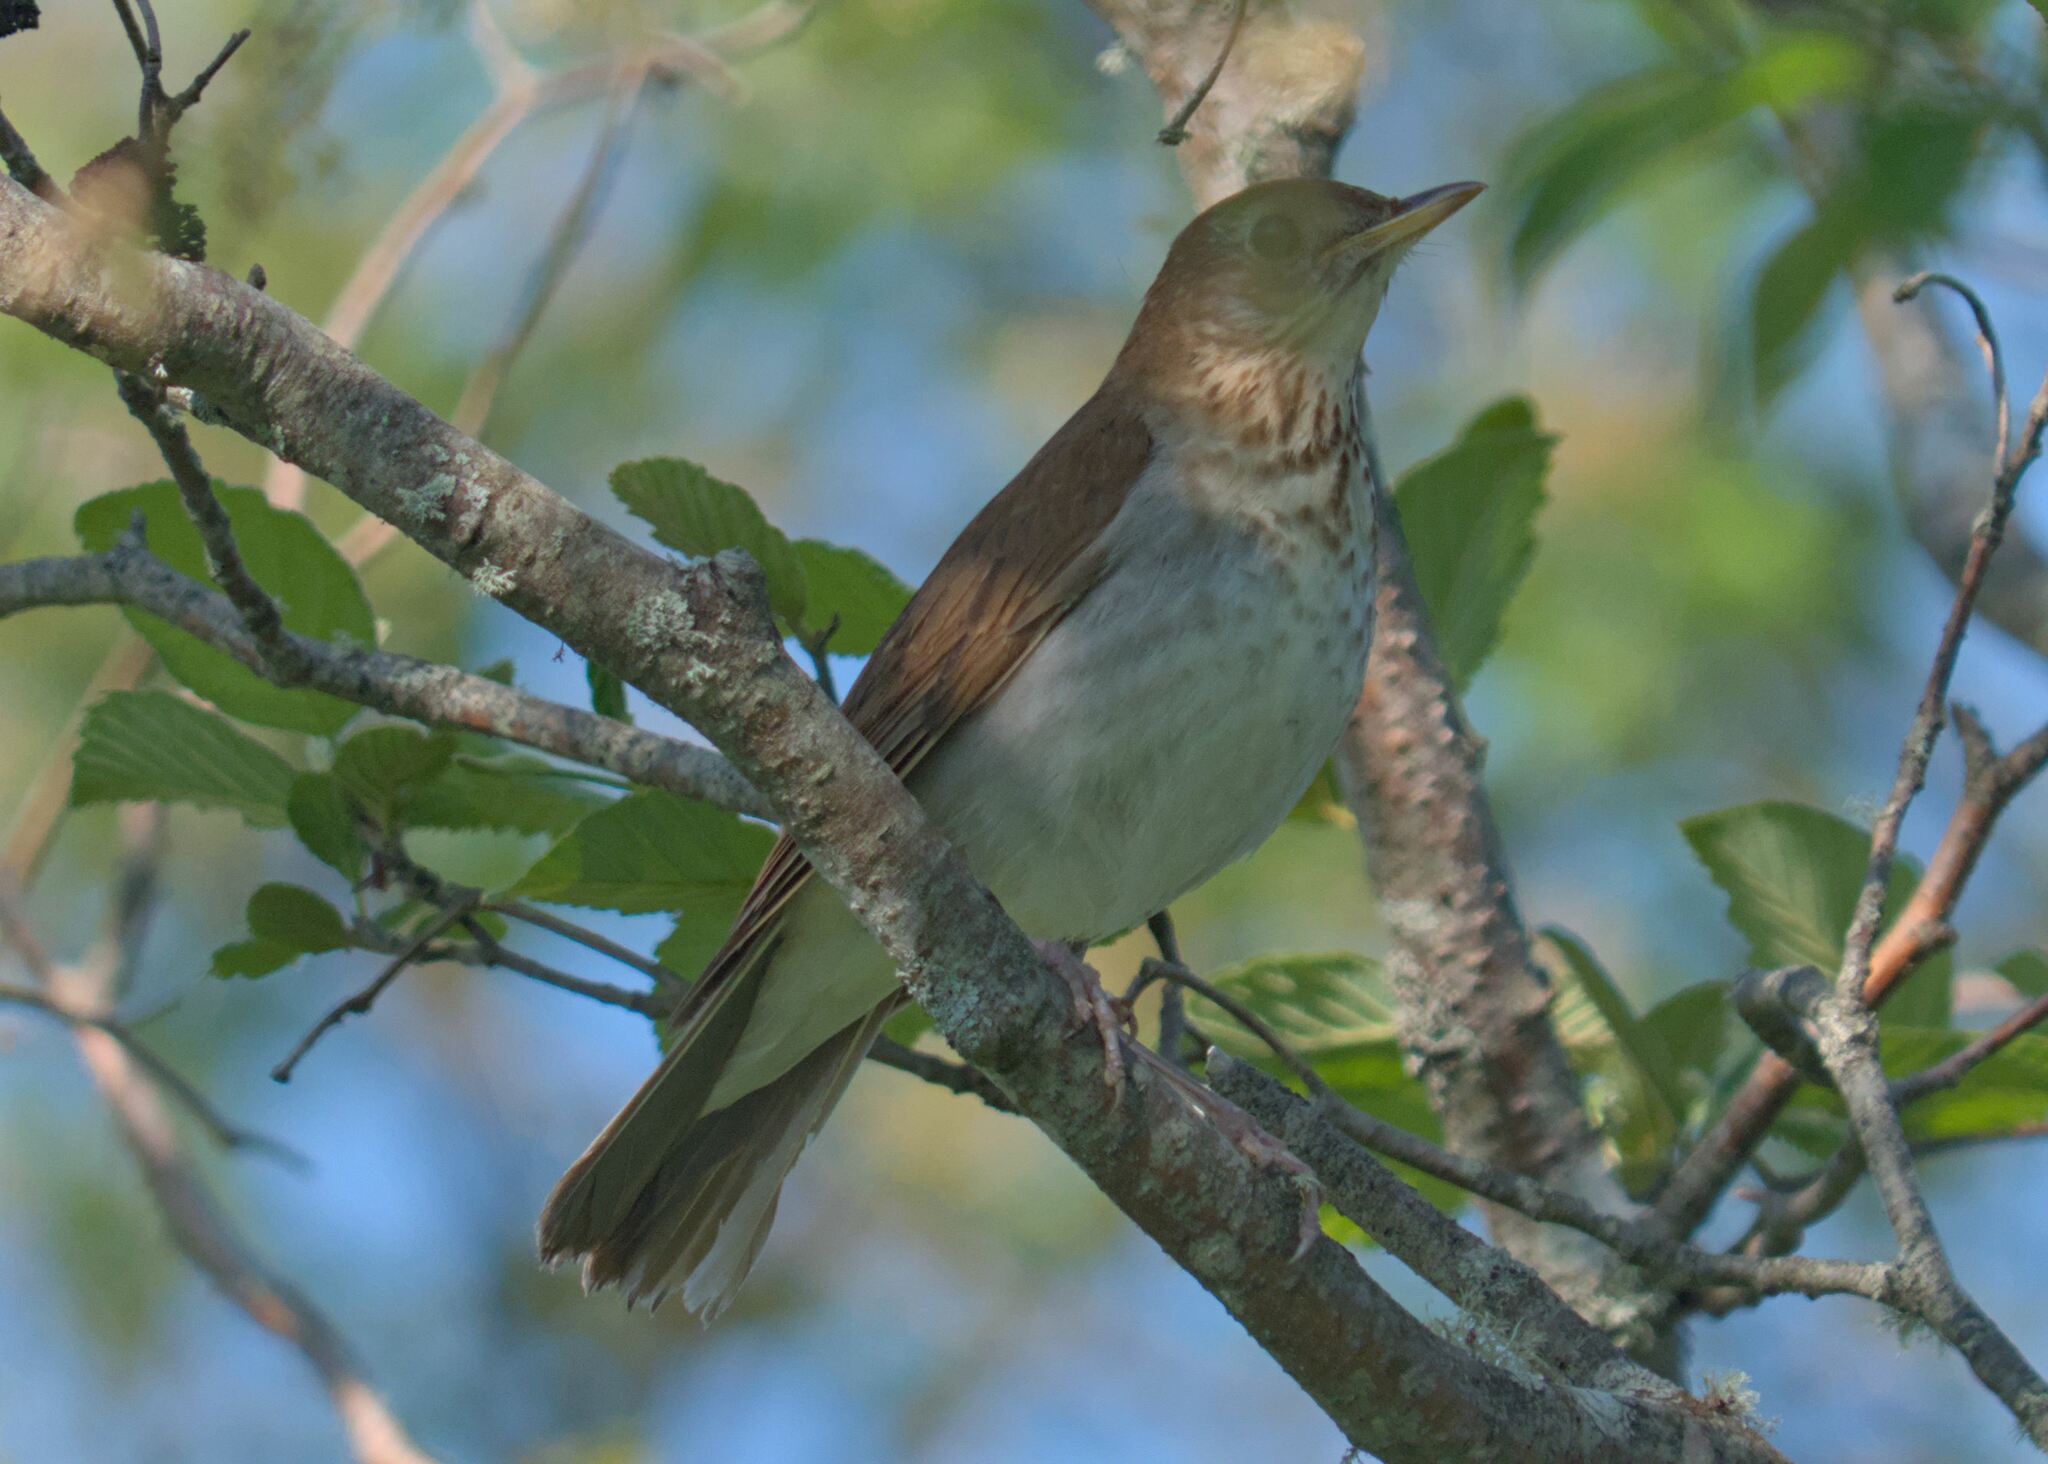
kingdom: Animalia
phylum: Chordata
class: Aves
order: Passeriformes
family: Turdidae
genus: Catharus
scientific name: Catharus fuscescens
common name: Veery
